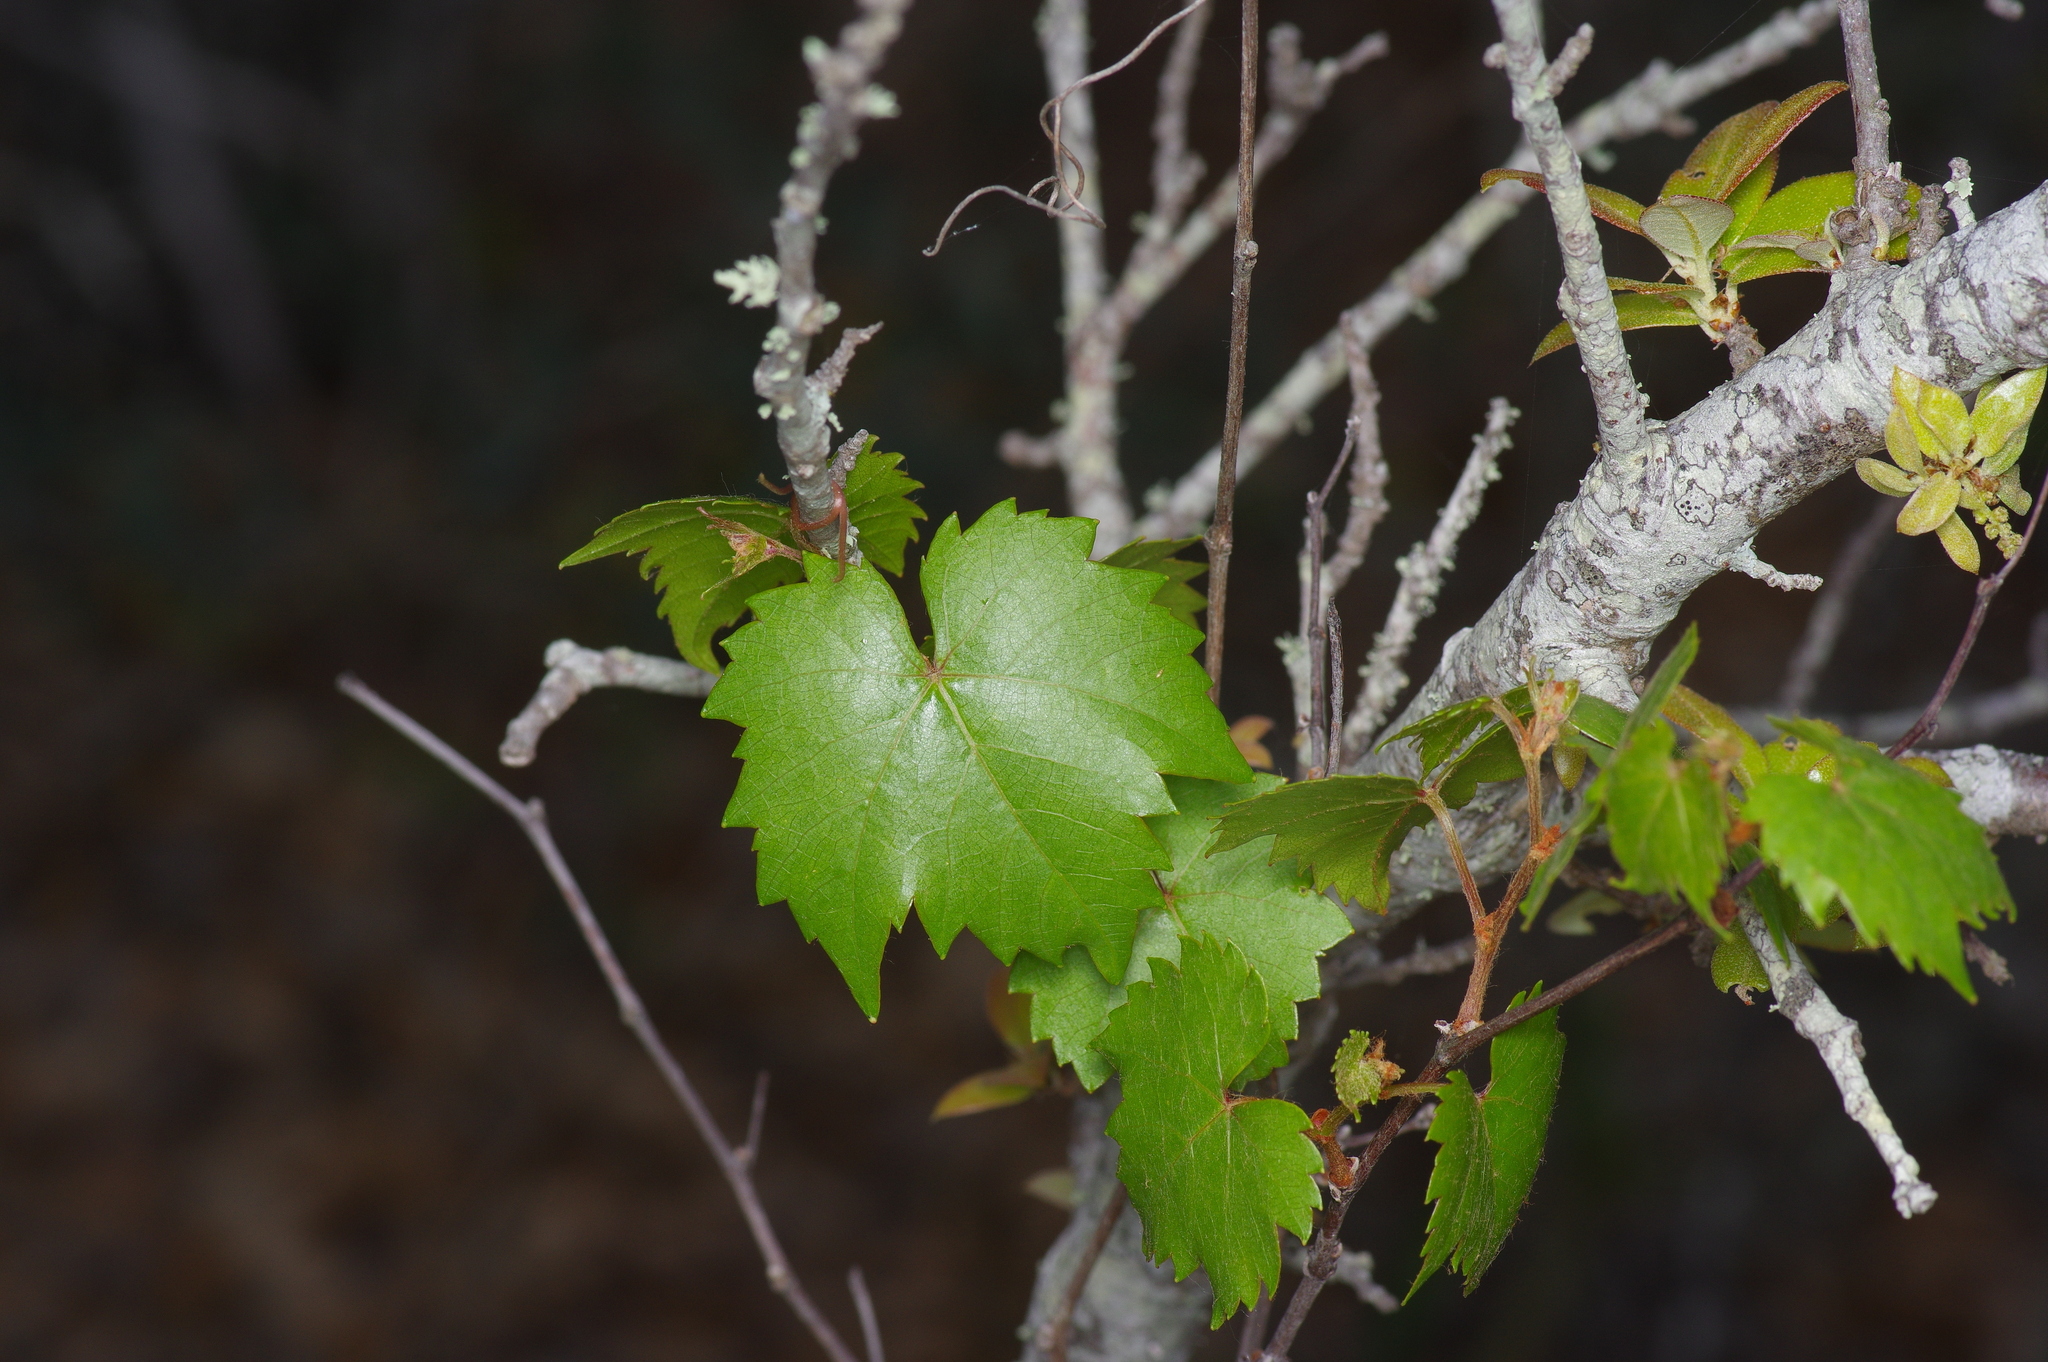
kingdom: Plantae
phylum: Tracheophyta
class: Magnoliopsida
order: Vitales
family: Vitaceae
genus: Vitis
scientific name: Vitis monticola
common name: Mountain grape
